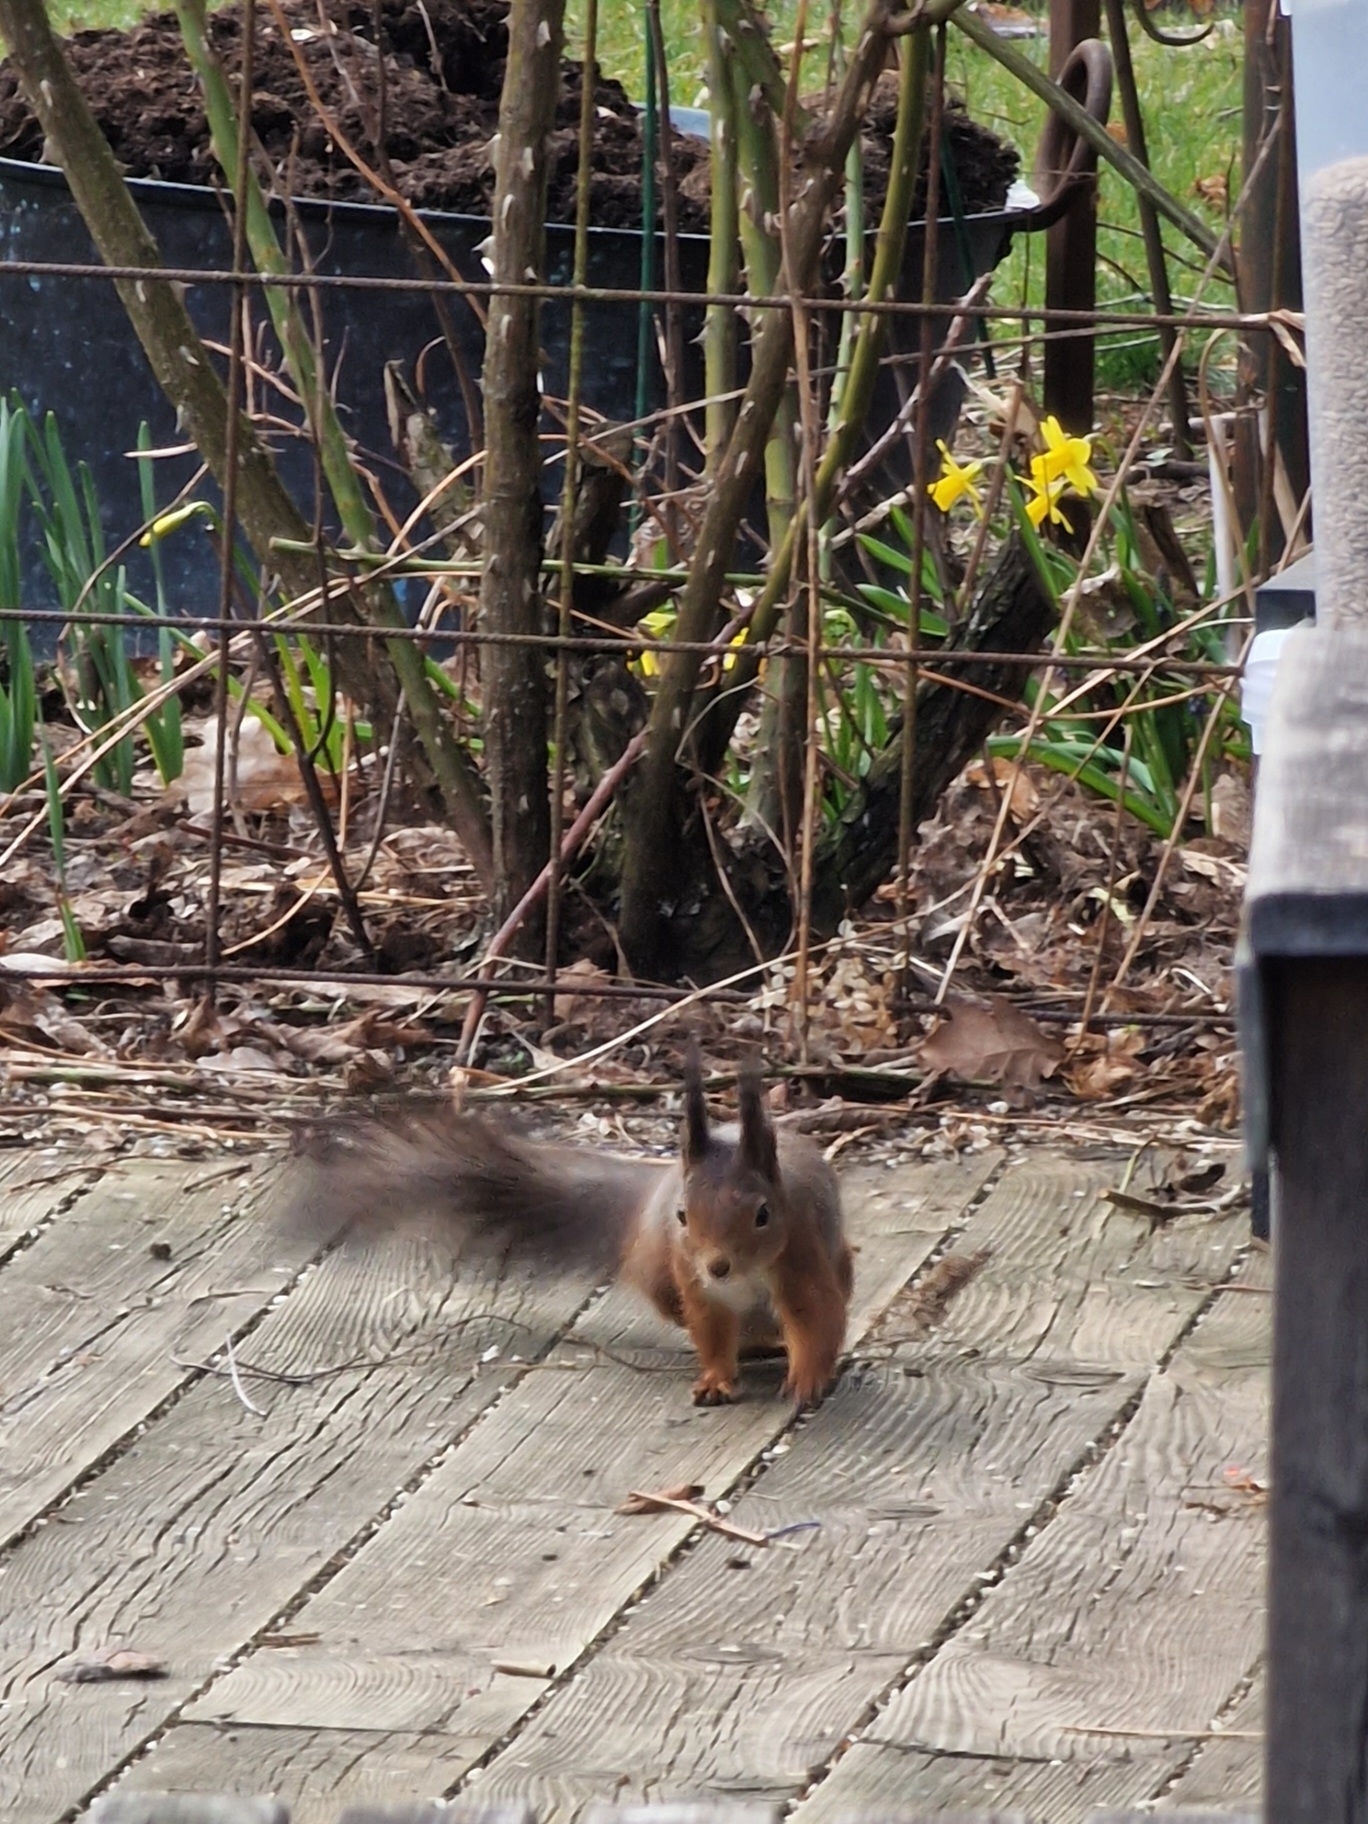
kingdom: Animalia
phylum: Chordata
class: Mammalia
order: Rodentia
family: Sciuridae
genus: Sciurus
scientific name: Sciurus vulgaris
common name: Eurasian red squirrel
